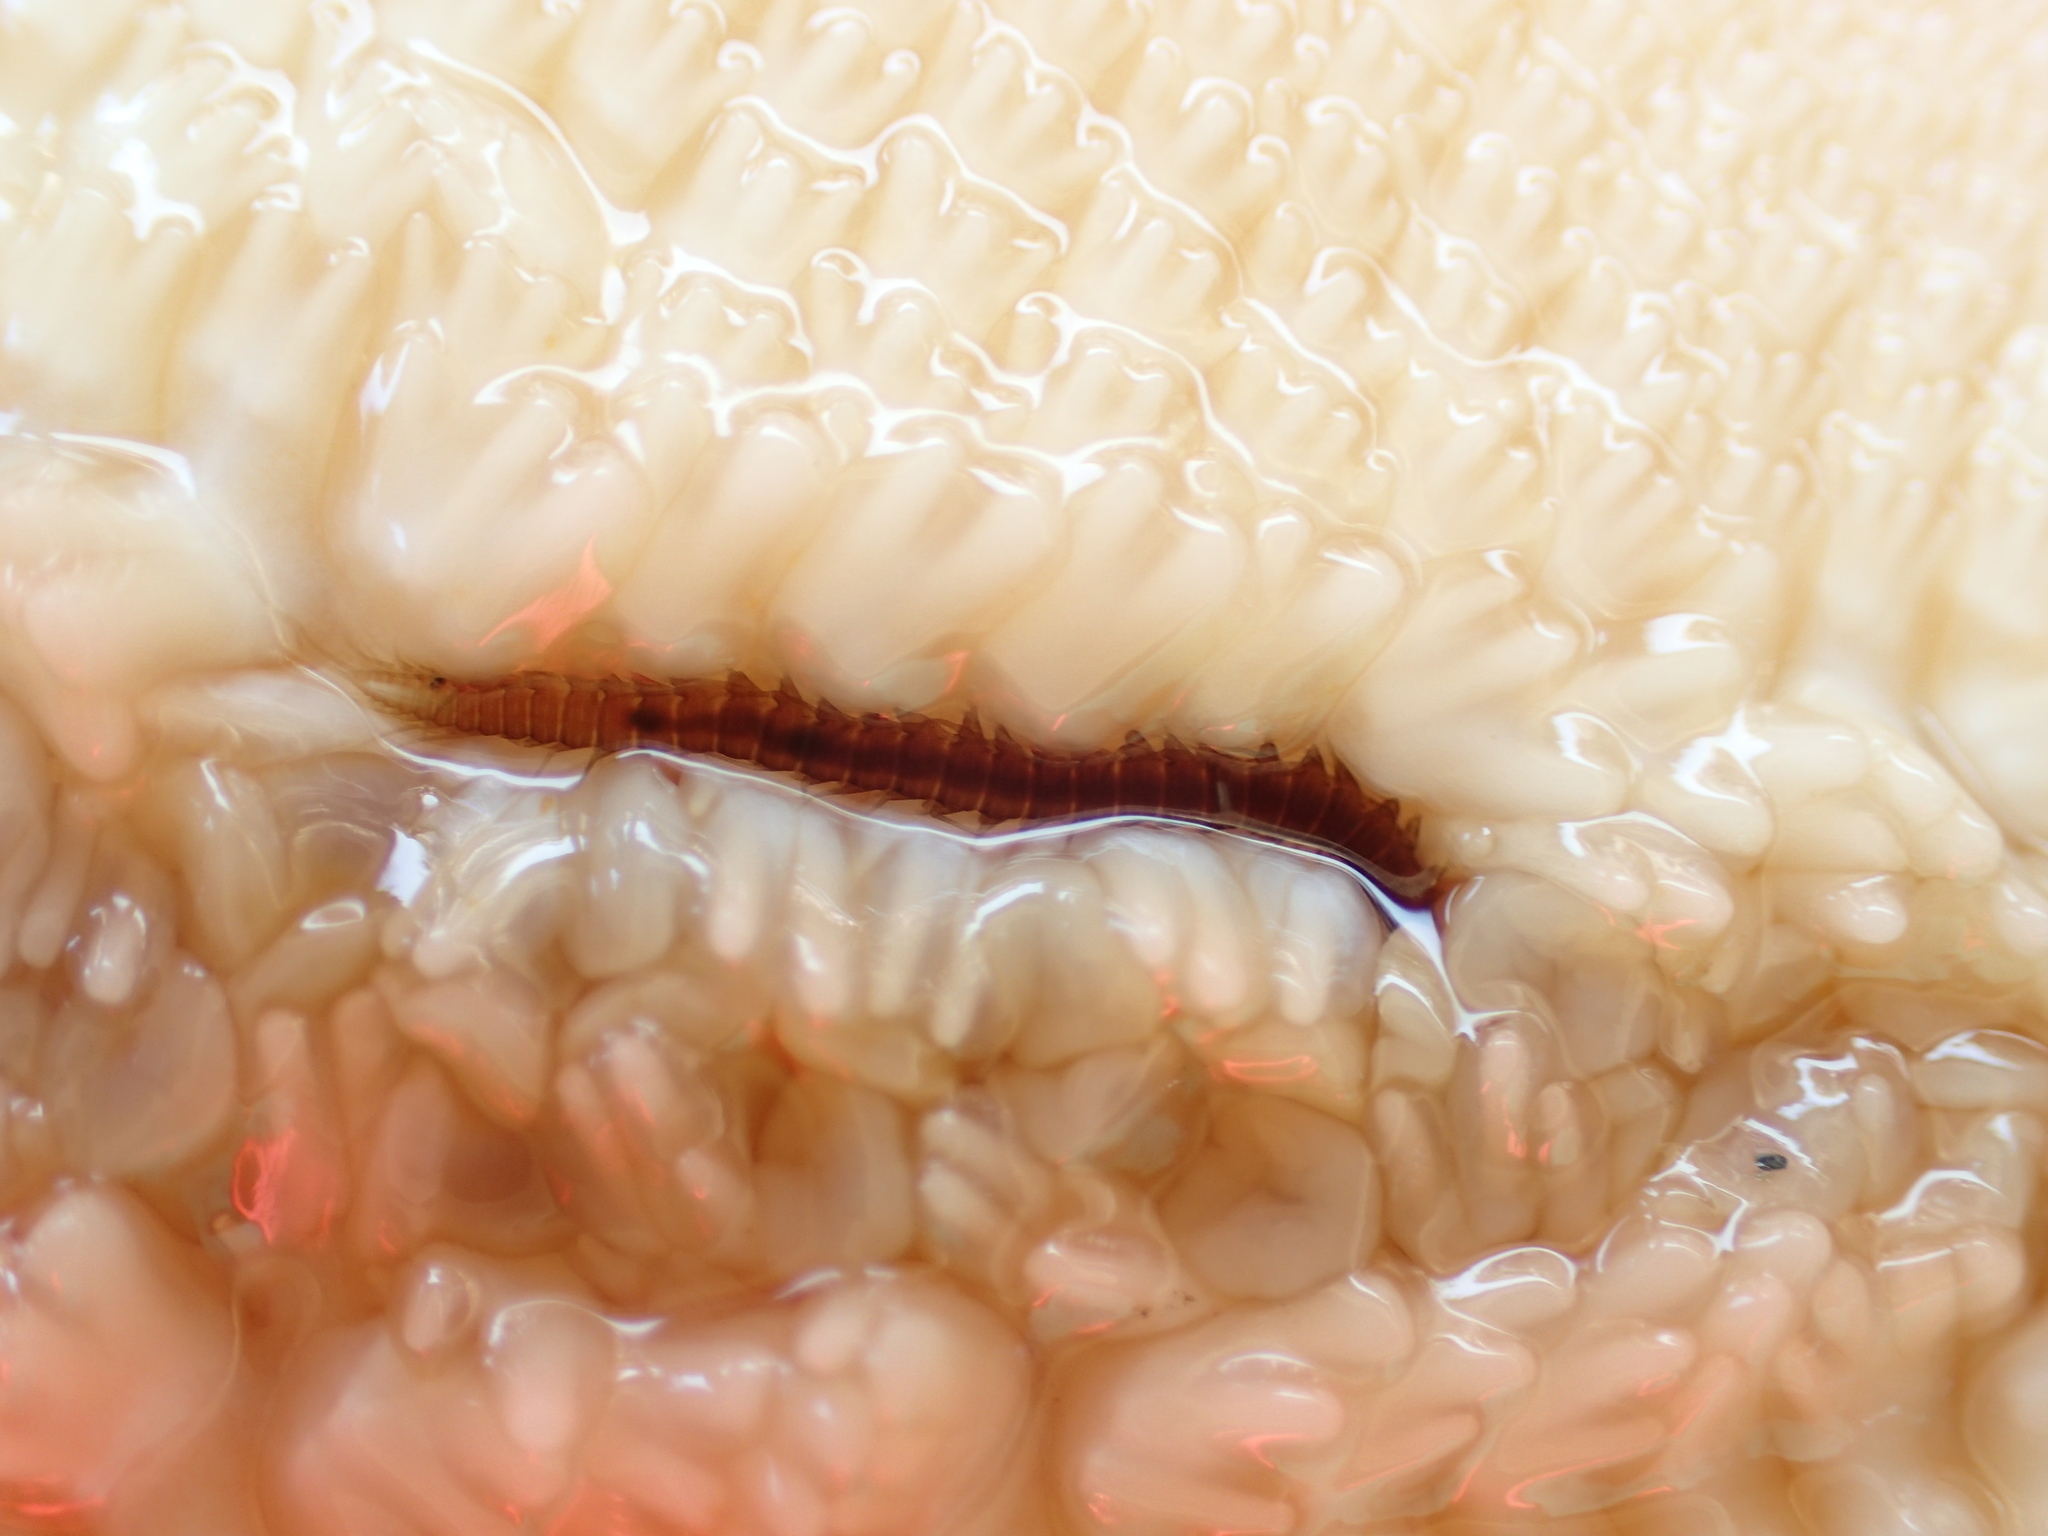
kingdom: Animalia
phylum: Annelida
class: Polychaeta
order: Phyllodocida
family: Hesionidae
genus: Oxydromus
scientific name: Oxydromus pugettensis
